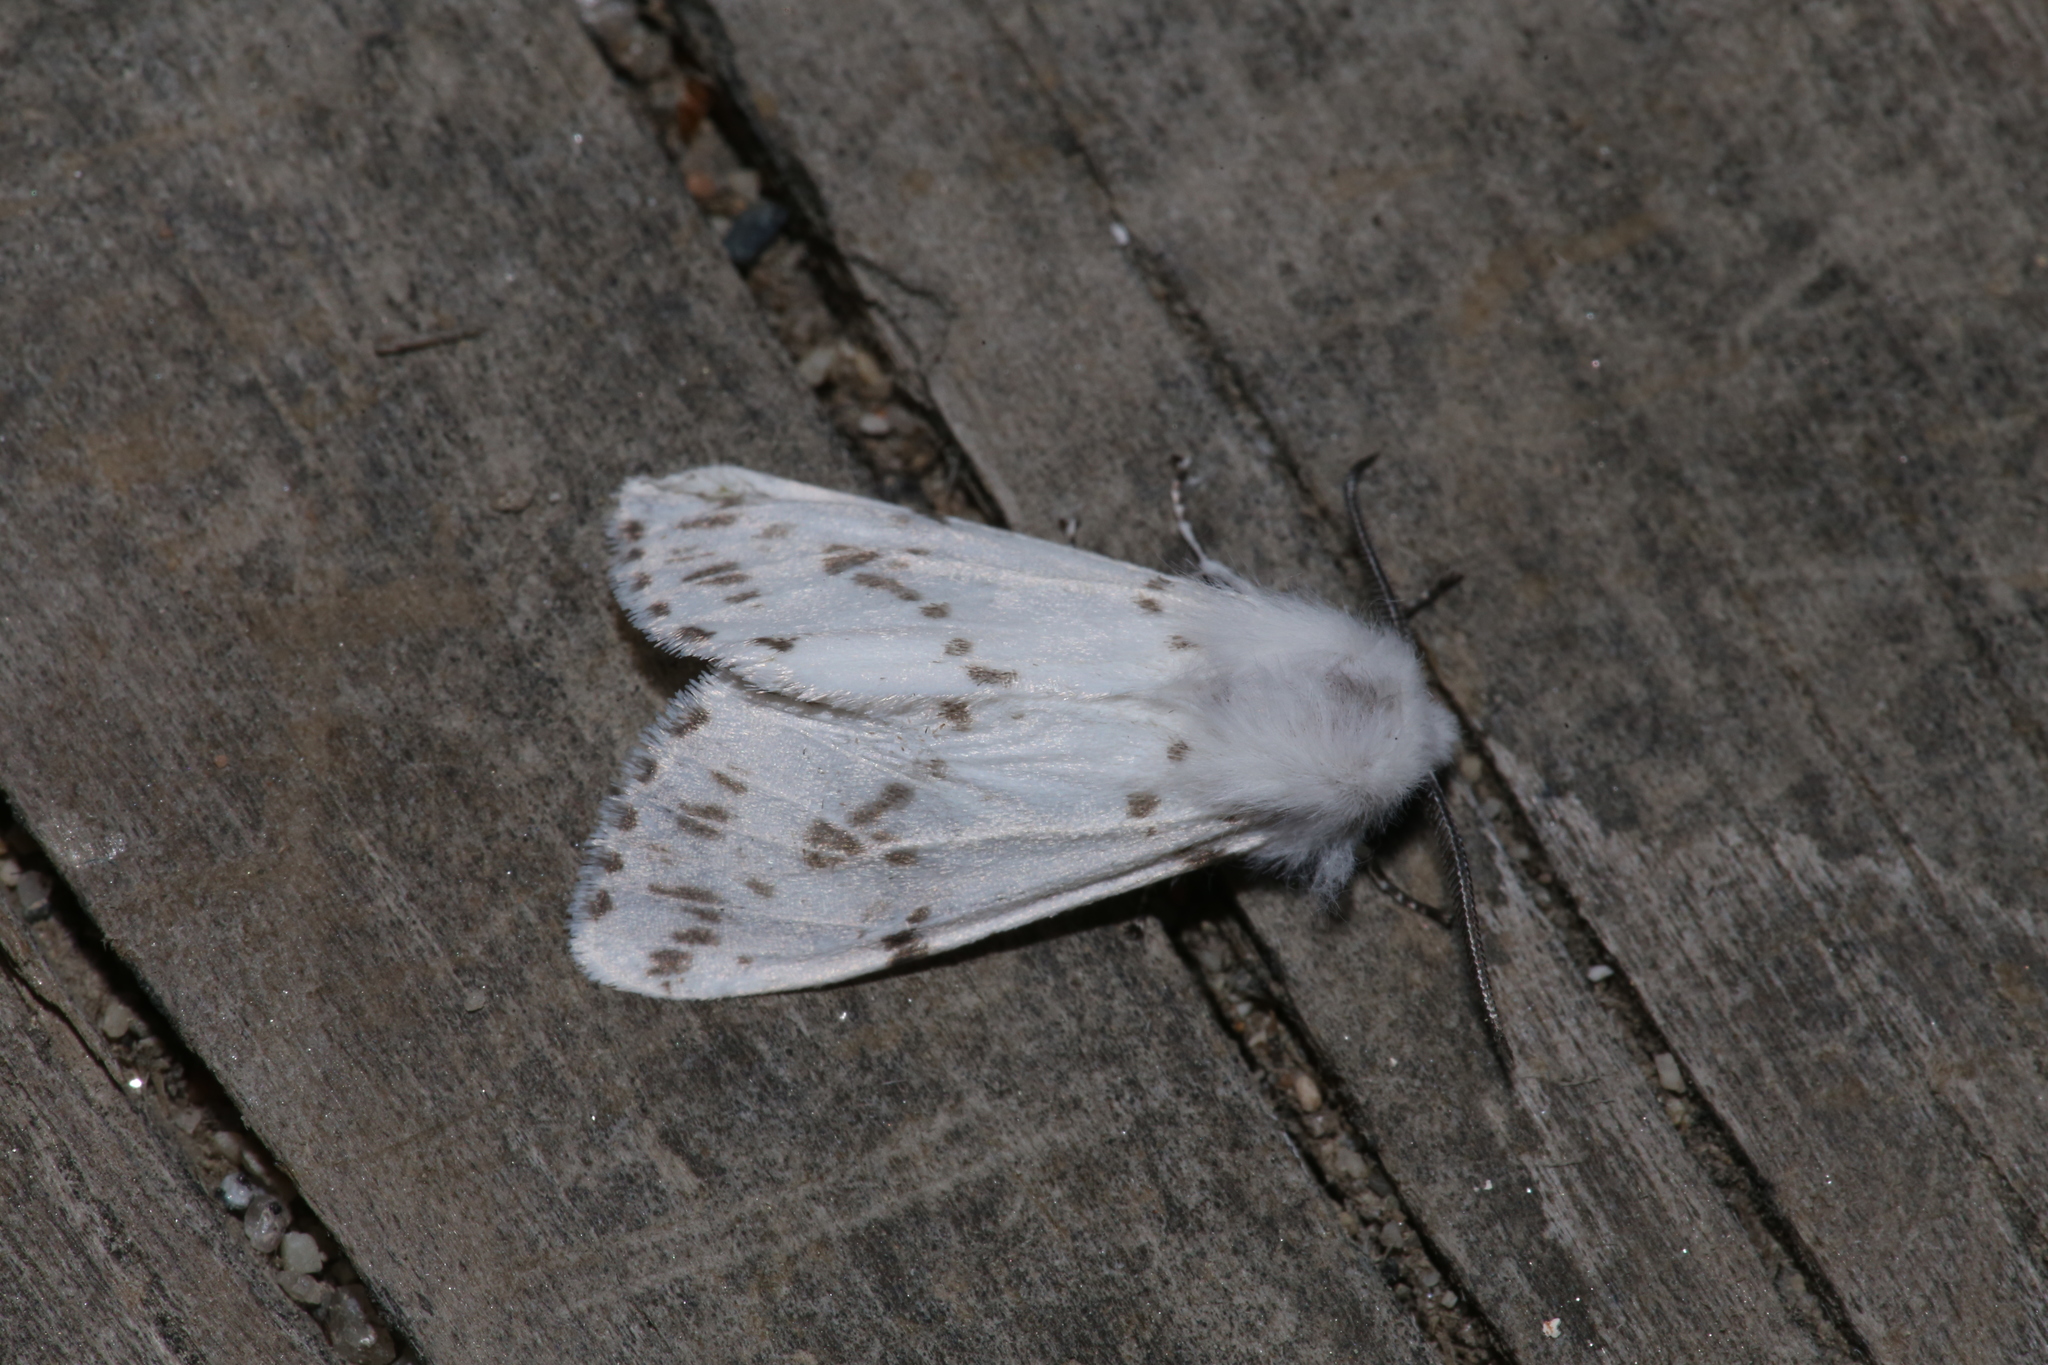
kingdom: Animalia
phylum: Arthropoda
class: Insecta
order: Lepidoptera
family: Erebidae
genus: Hyphantria
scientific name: Hyphantria cunea
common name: American white moth
